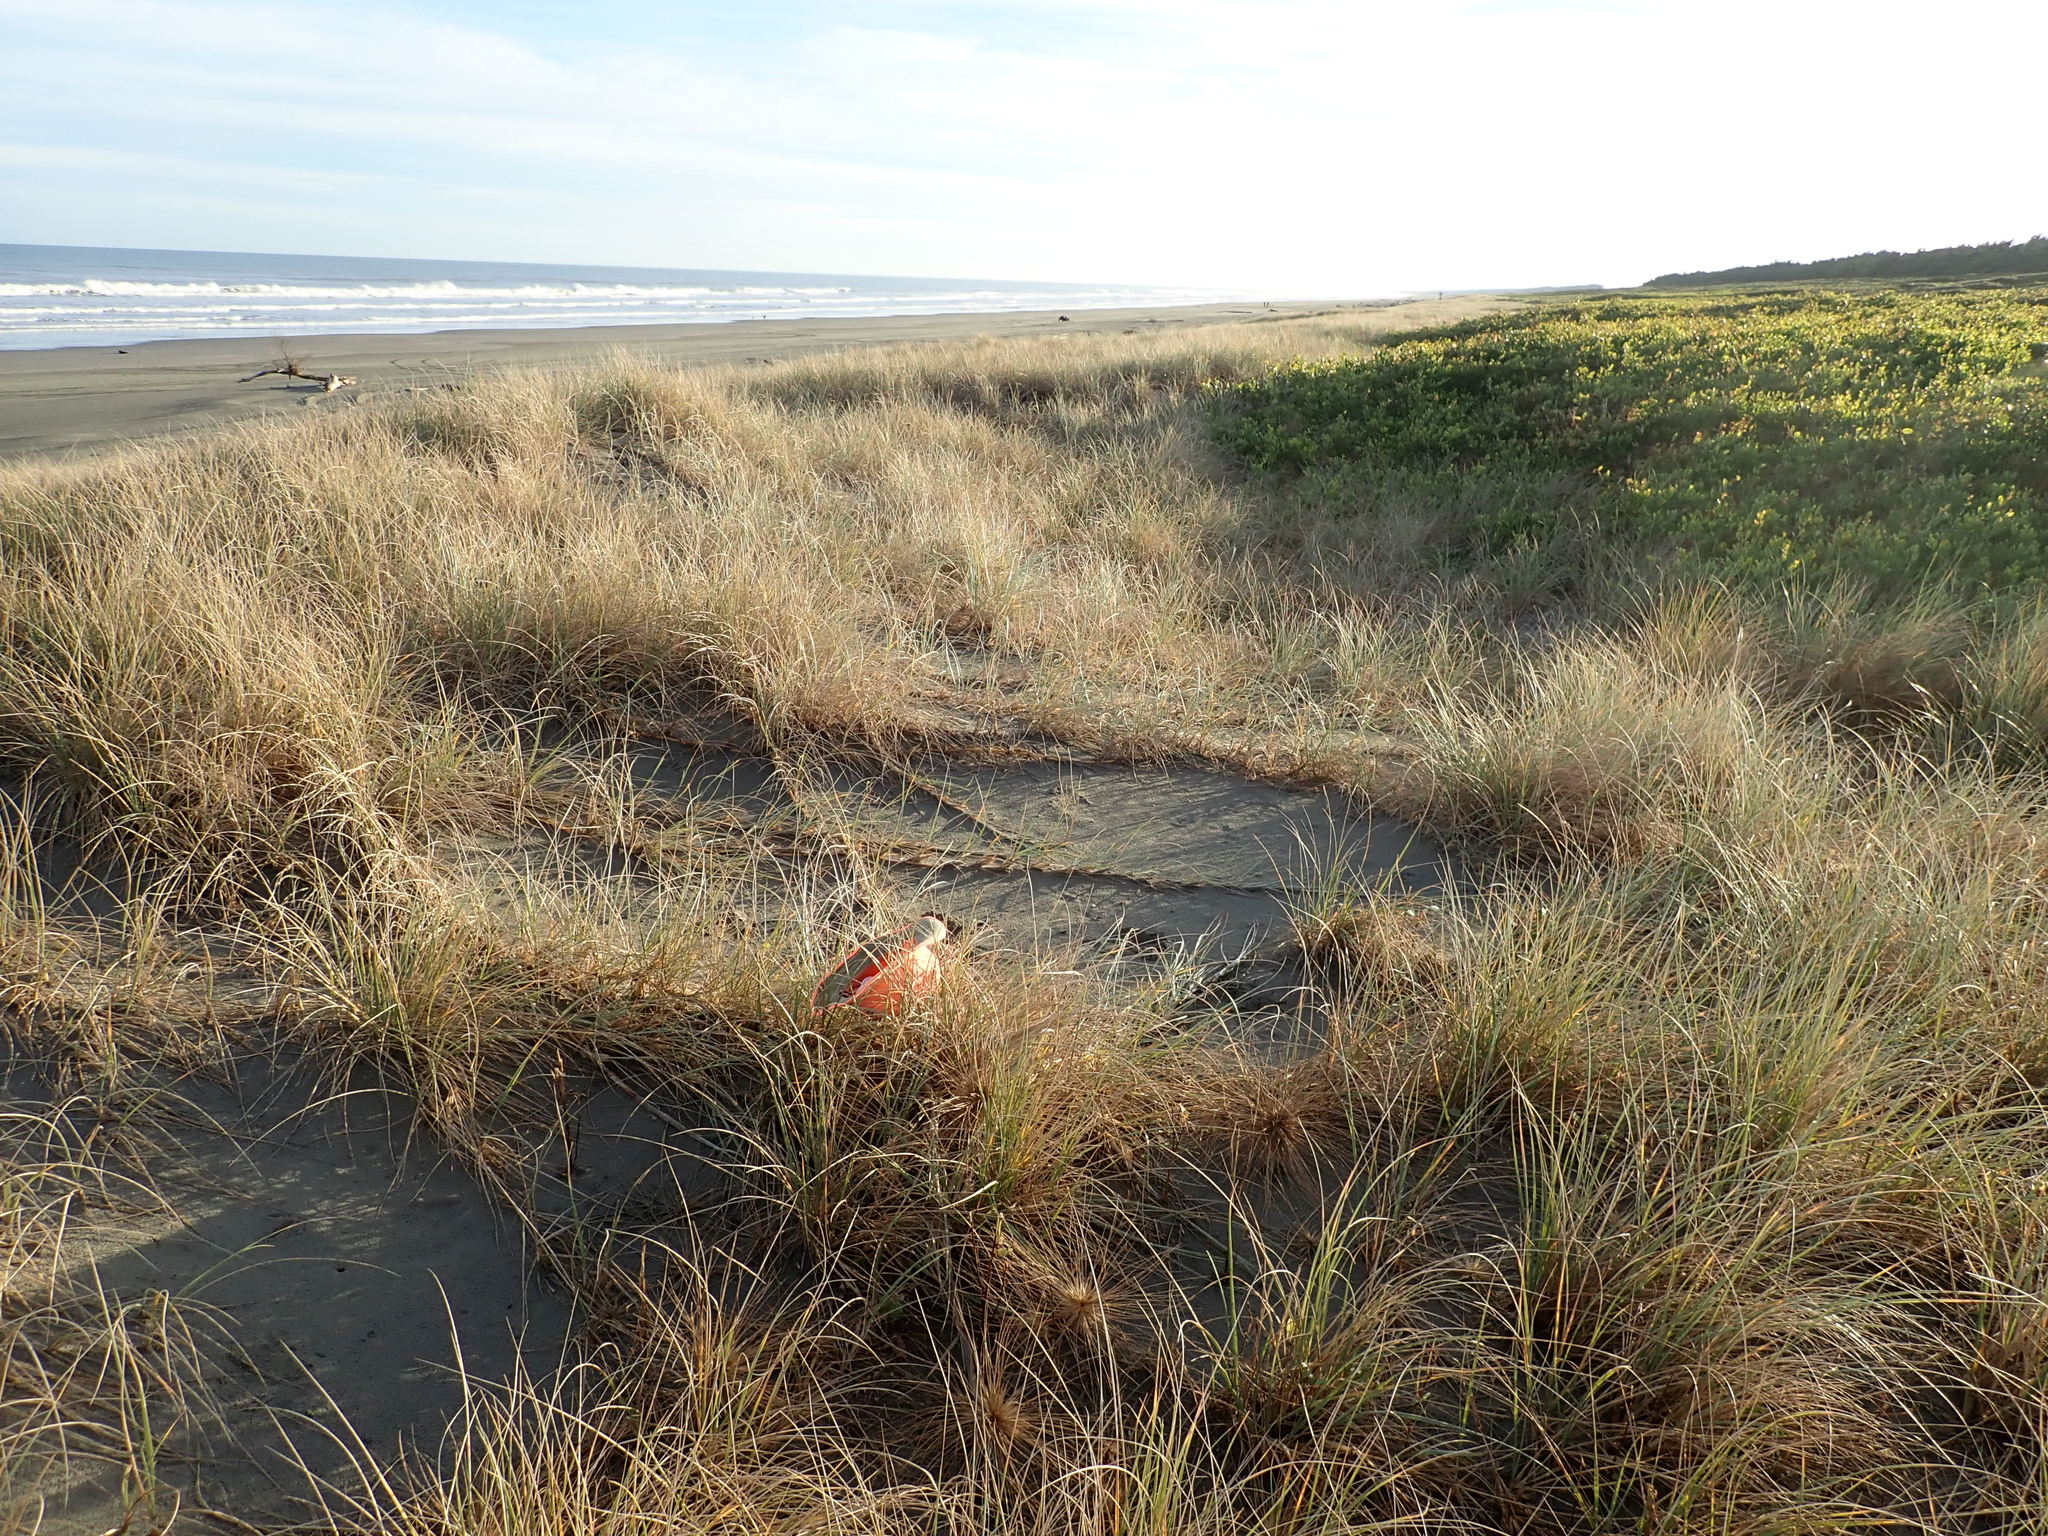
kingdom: Animalia
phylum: Arthropoda
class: Arachnida
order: Araneae
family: Theridiidae
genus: Latrodectus
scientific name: Latrodectus katipo
